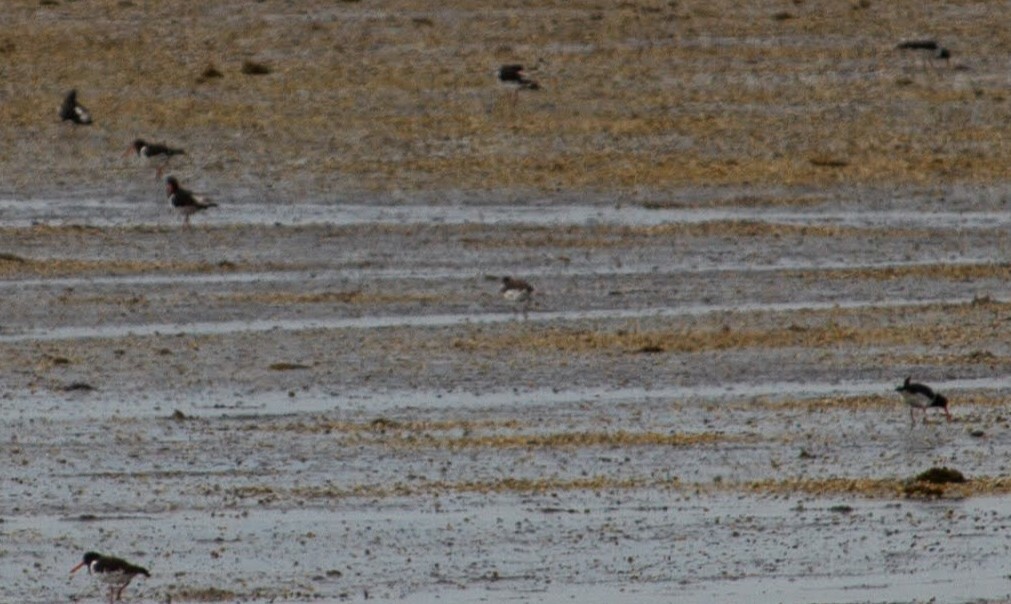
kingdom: Animalia
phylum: Chordata
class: Aves
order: Charadriiformes
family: Haematopodidae
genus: Haematopus
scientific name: Haematopus ostralegus
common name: Eurasian oystercatcher
